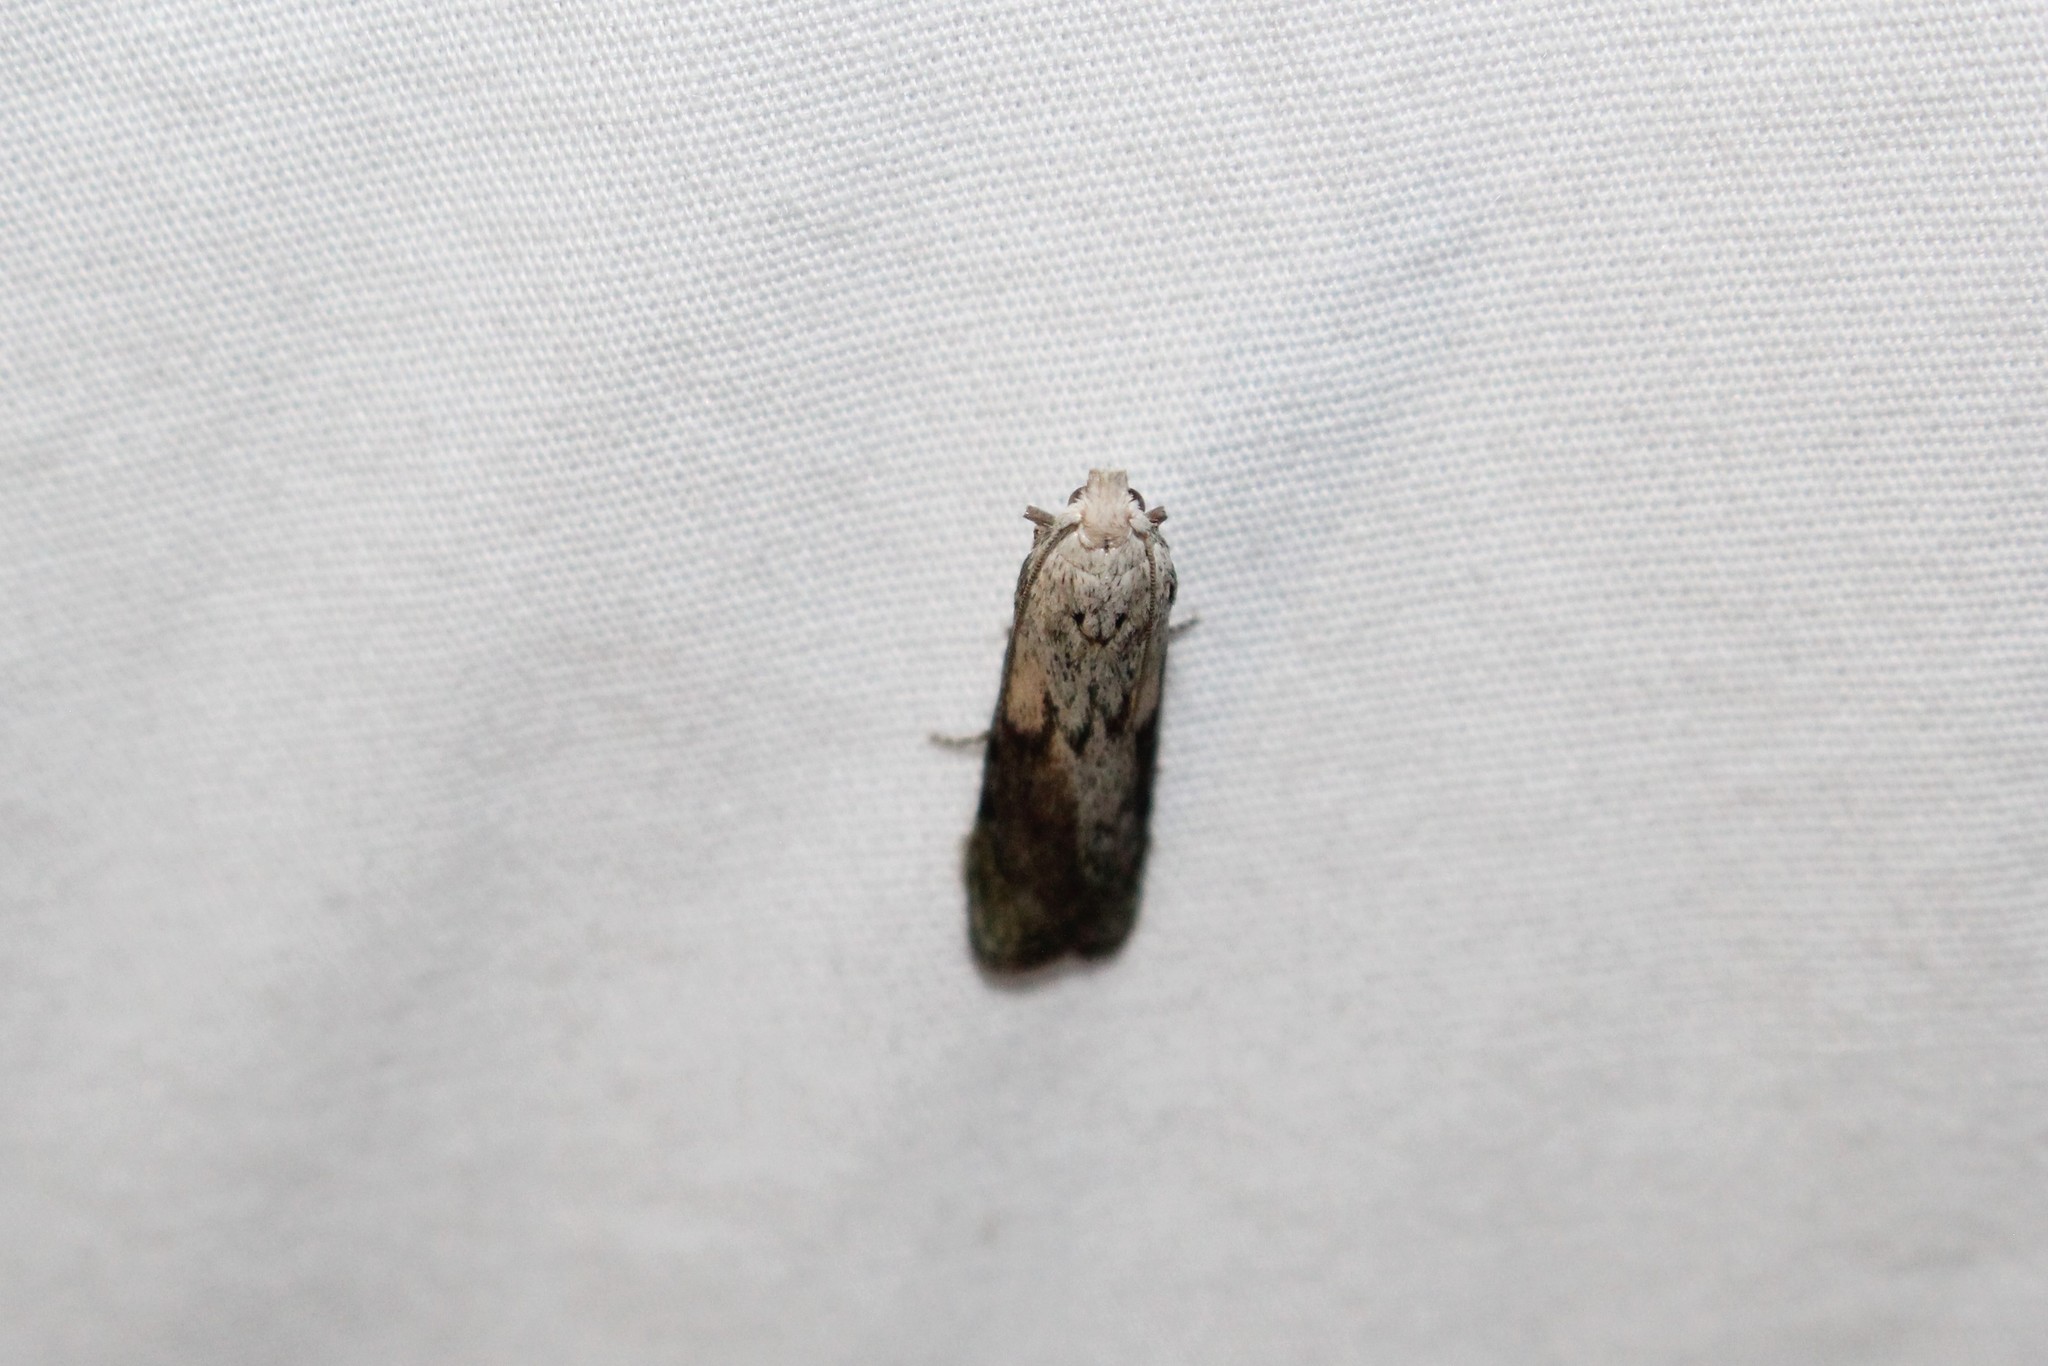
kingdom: Animalia
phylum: Arthropoda
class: Insecta
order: Lepidoptera
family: Pyralidae
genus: Aphomia
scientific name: Aphomia sociella
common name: Bee moth
